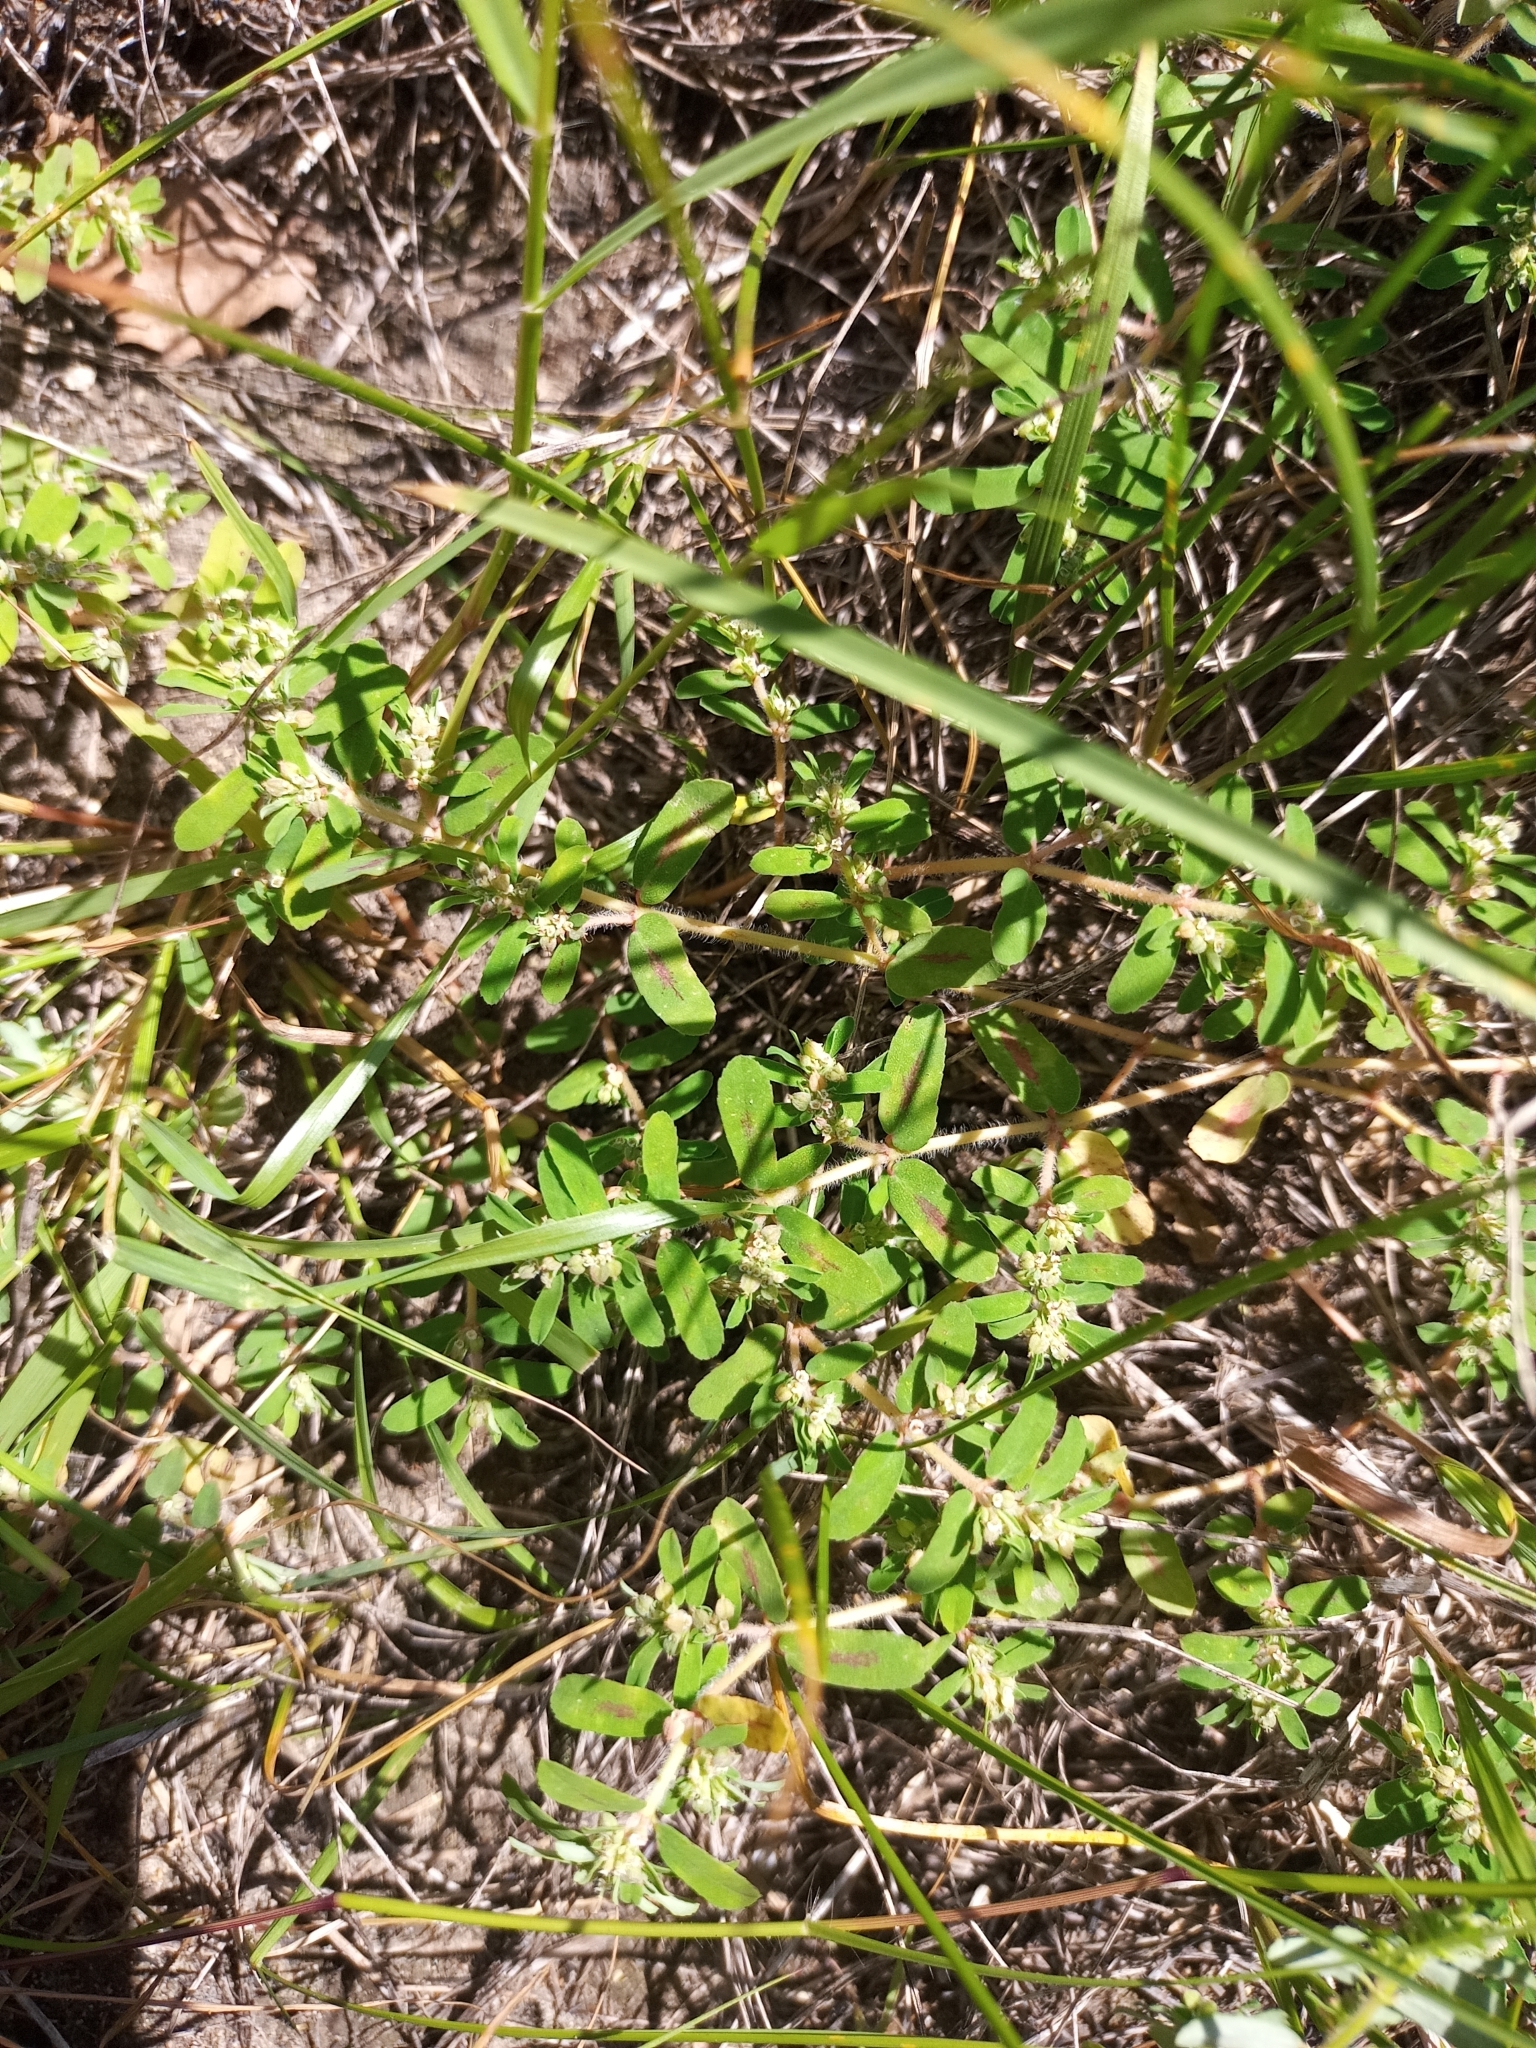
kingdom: Plantae
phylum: Tracheophyta
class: Magnoliopsida
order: Malpighiales
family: Euphorbiaceae
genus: Euphorbia
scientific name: Euphorbia maculata
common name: Spotted spurge
